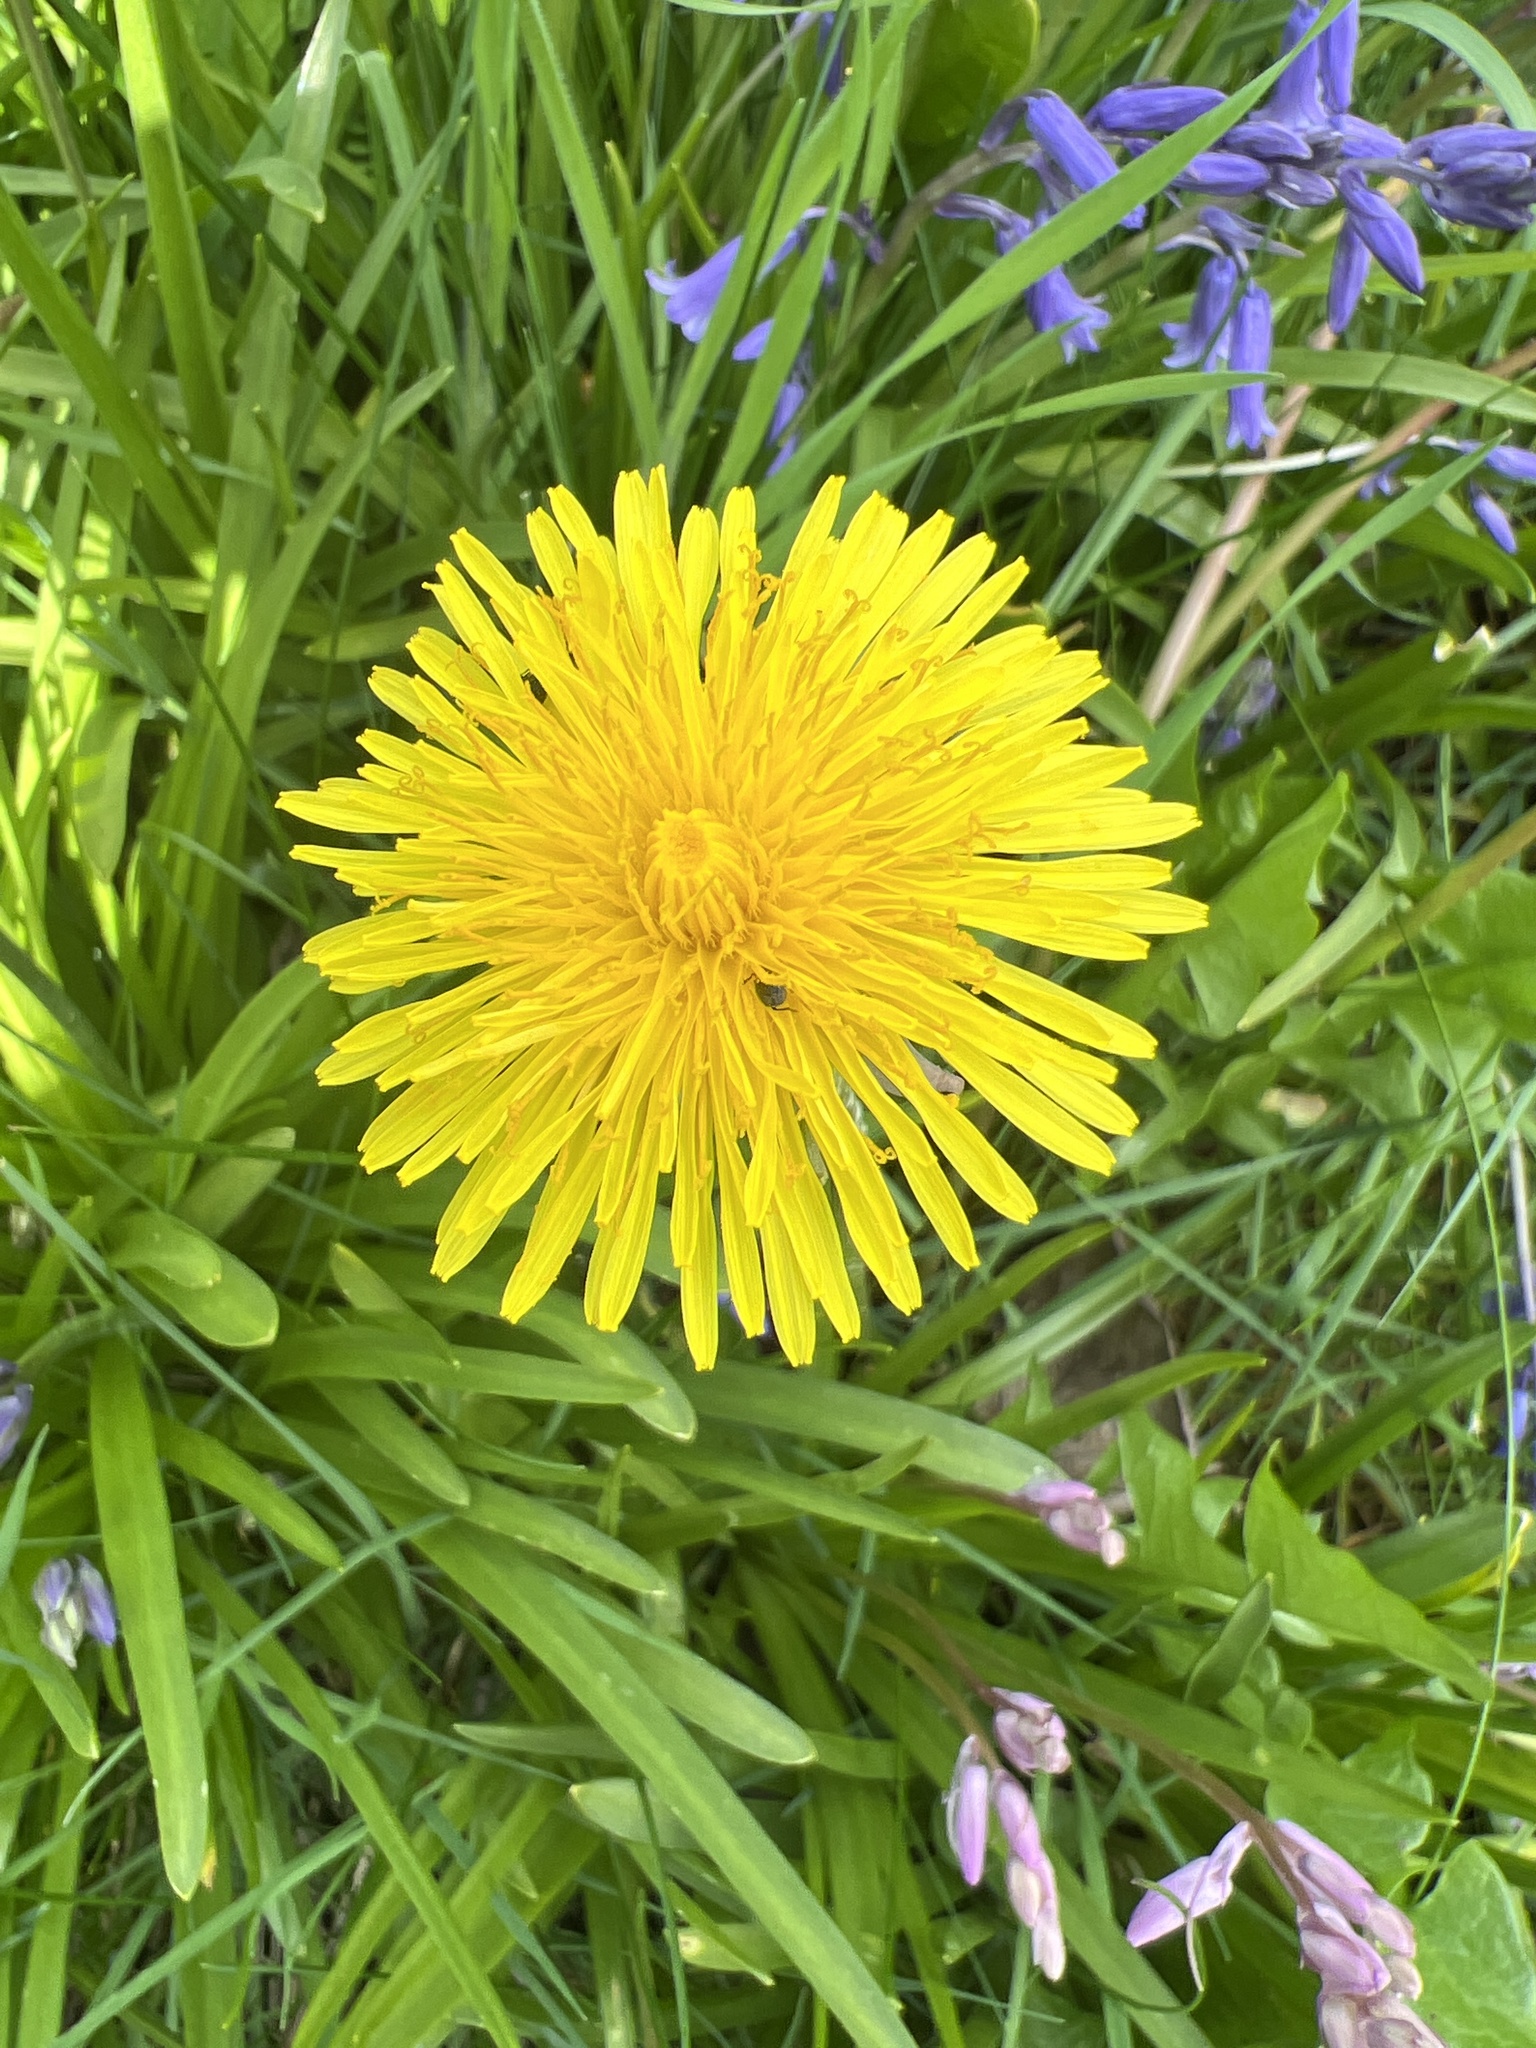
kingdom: Plantae
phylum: Tracheophyta
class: Magnoliopsida
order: Asterales
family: Asteraceae
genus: Taraxacum
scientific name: Taraxacum officinale
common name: Common dandelion
